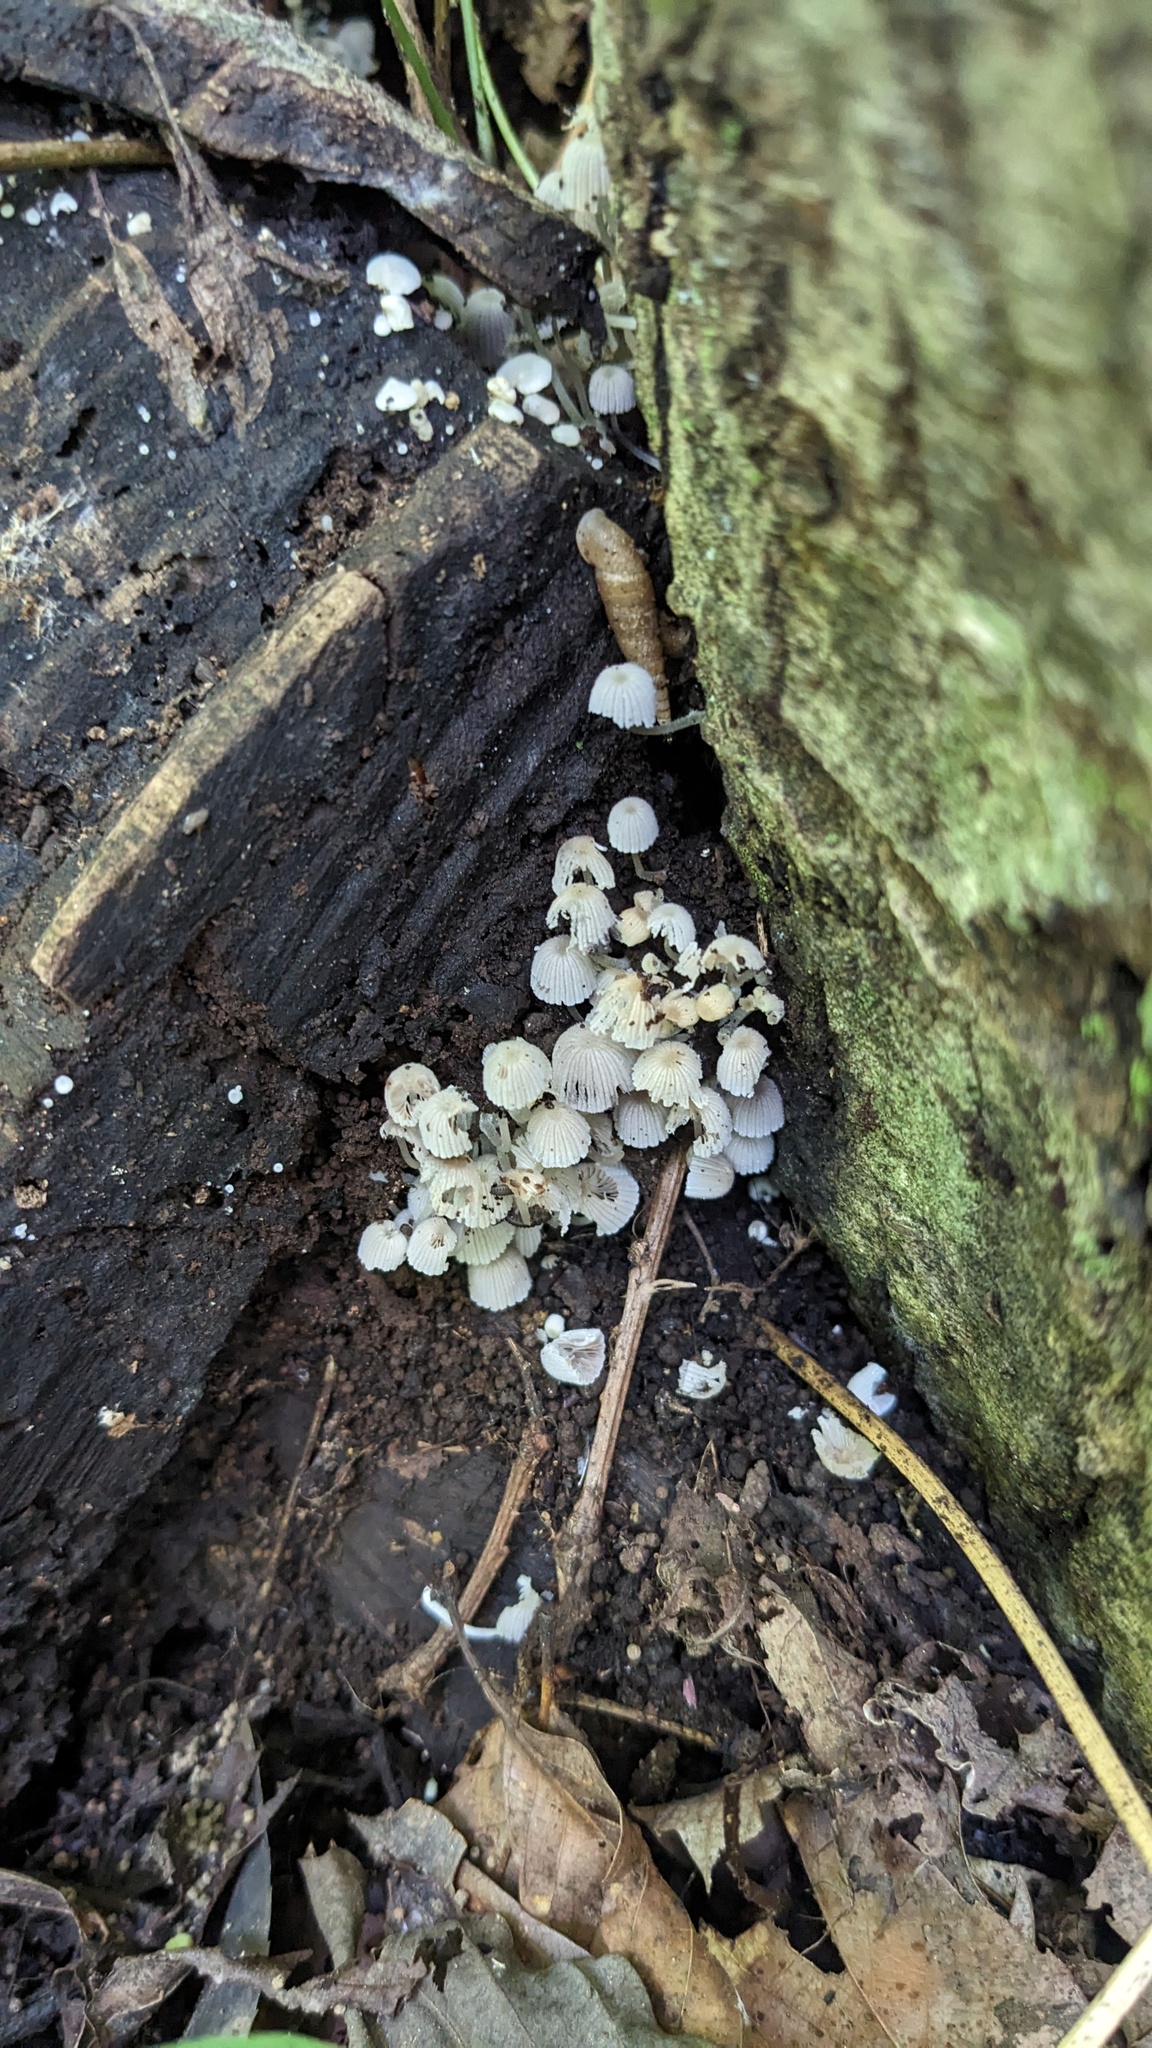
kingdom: Fungi
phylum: Basidiomycota
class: Agaricomycetes
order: Agaricales
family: Psathyrellaceae
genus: Coprinellus
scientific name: Coprinellus disseminatus
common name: Fairies' bonnets
